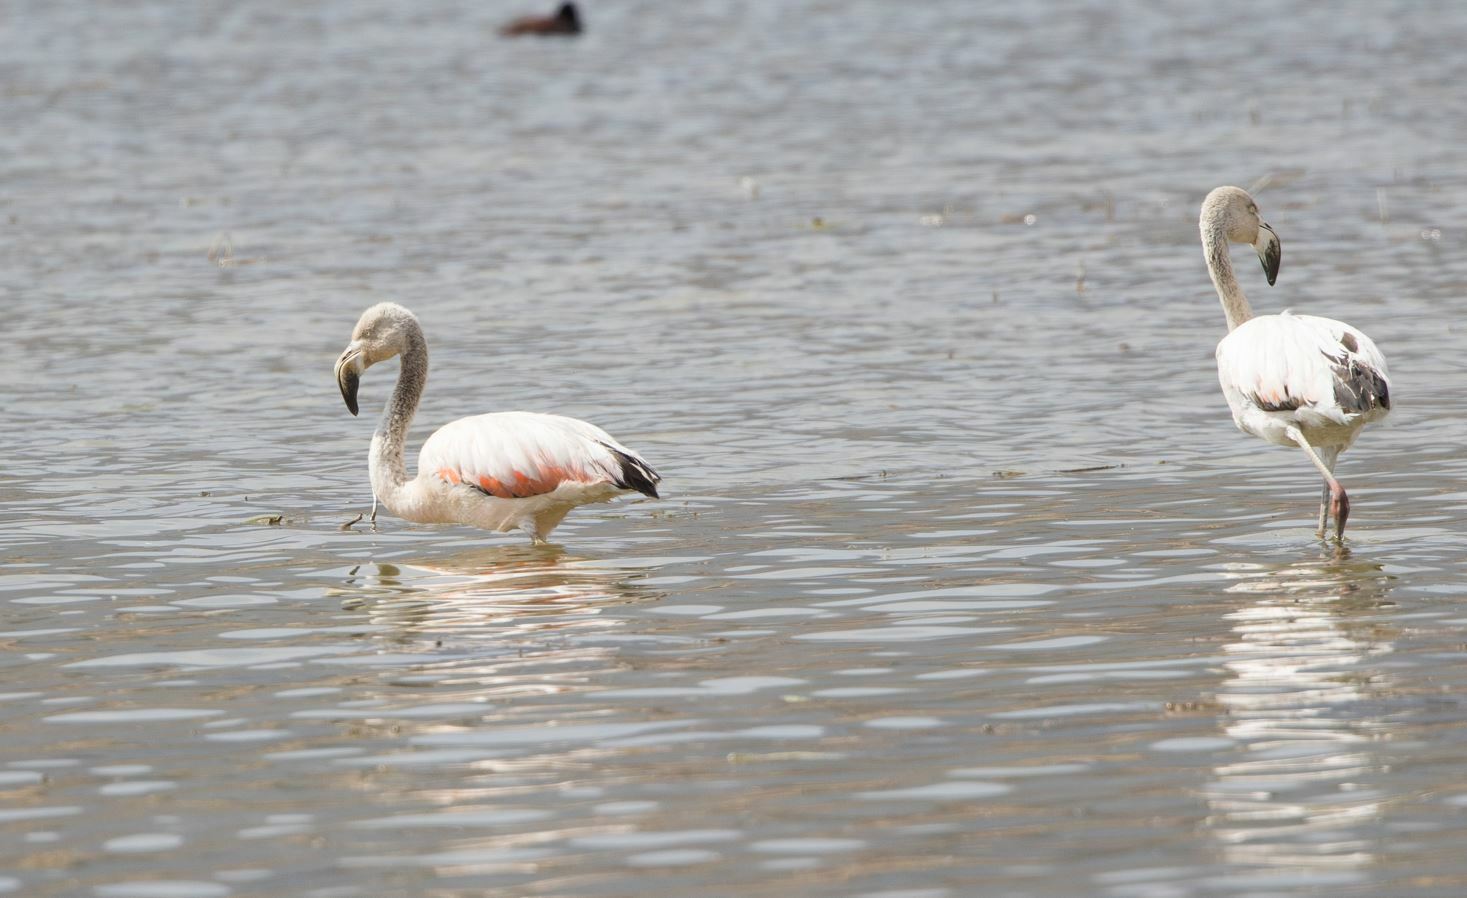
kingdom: Animalia
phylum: Chordata
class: Aves
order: Phoenicopteriformes
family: Phoenicopteridae
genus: Phoenicopterus
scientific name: Phoenicopterus chilensis
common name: Chilean flamingo
